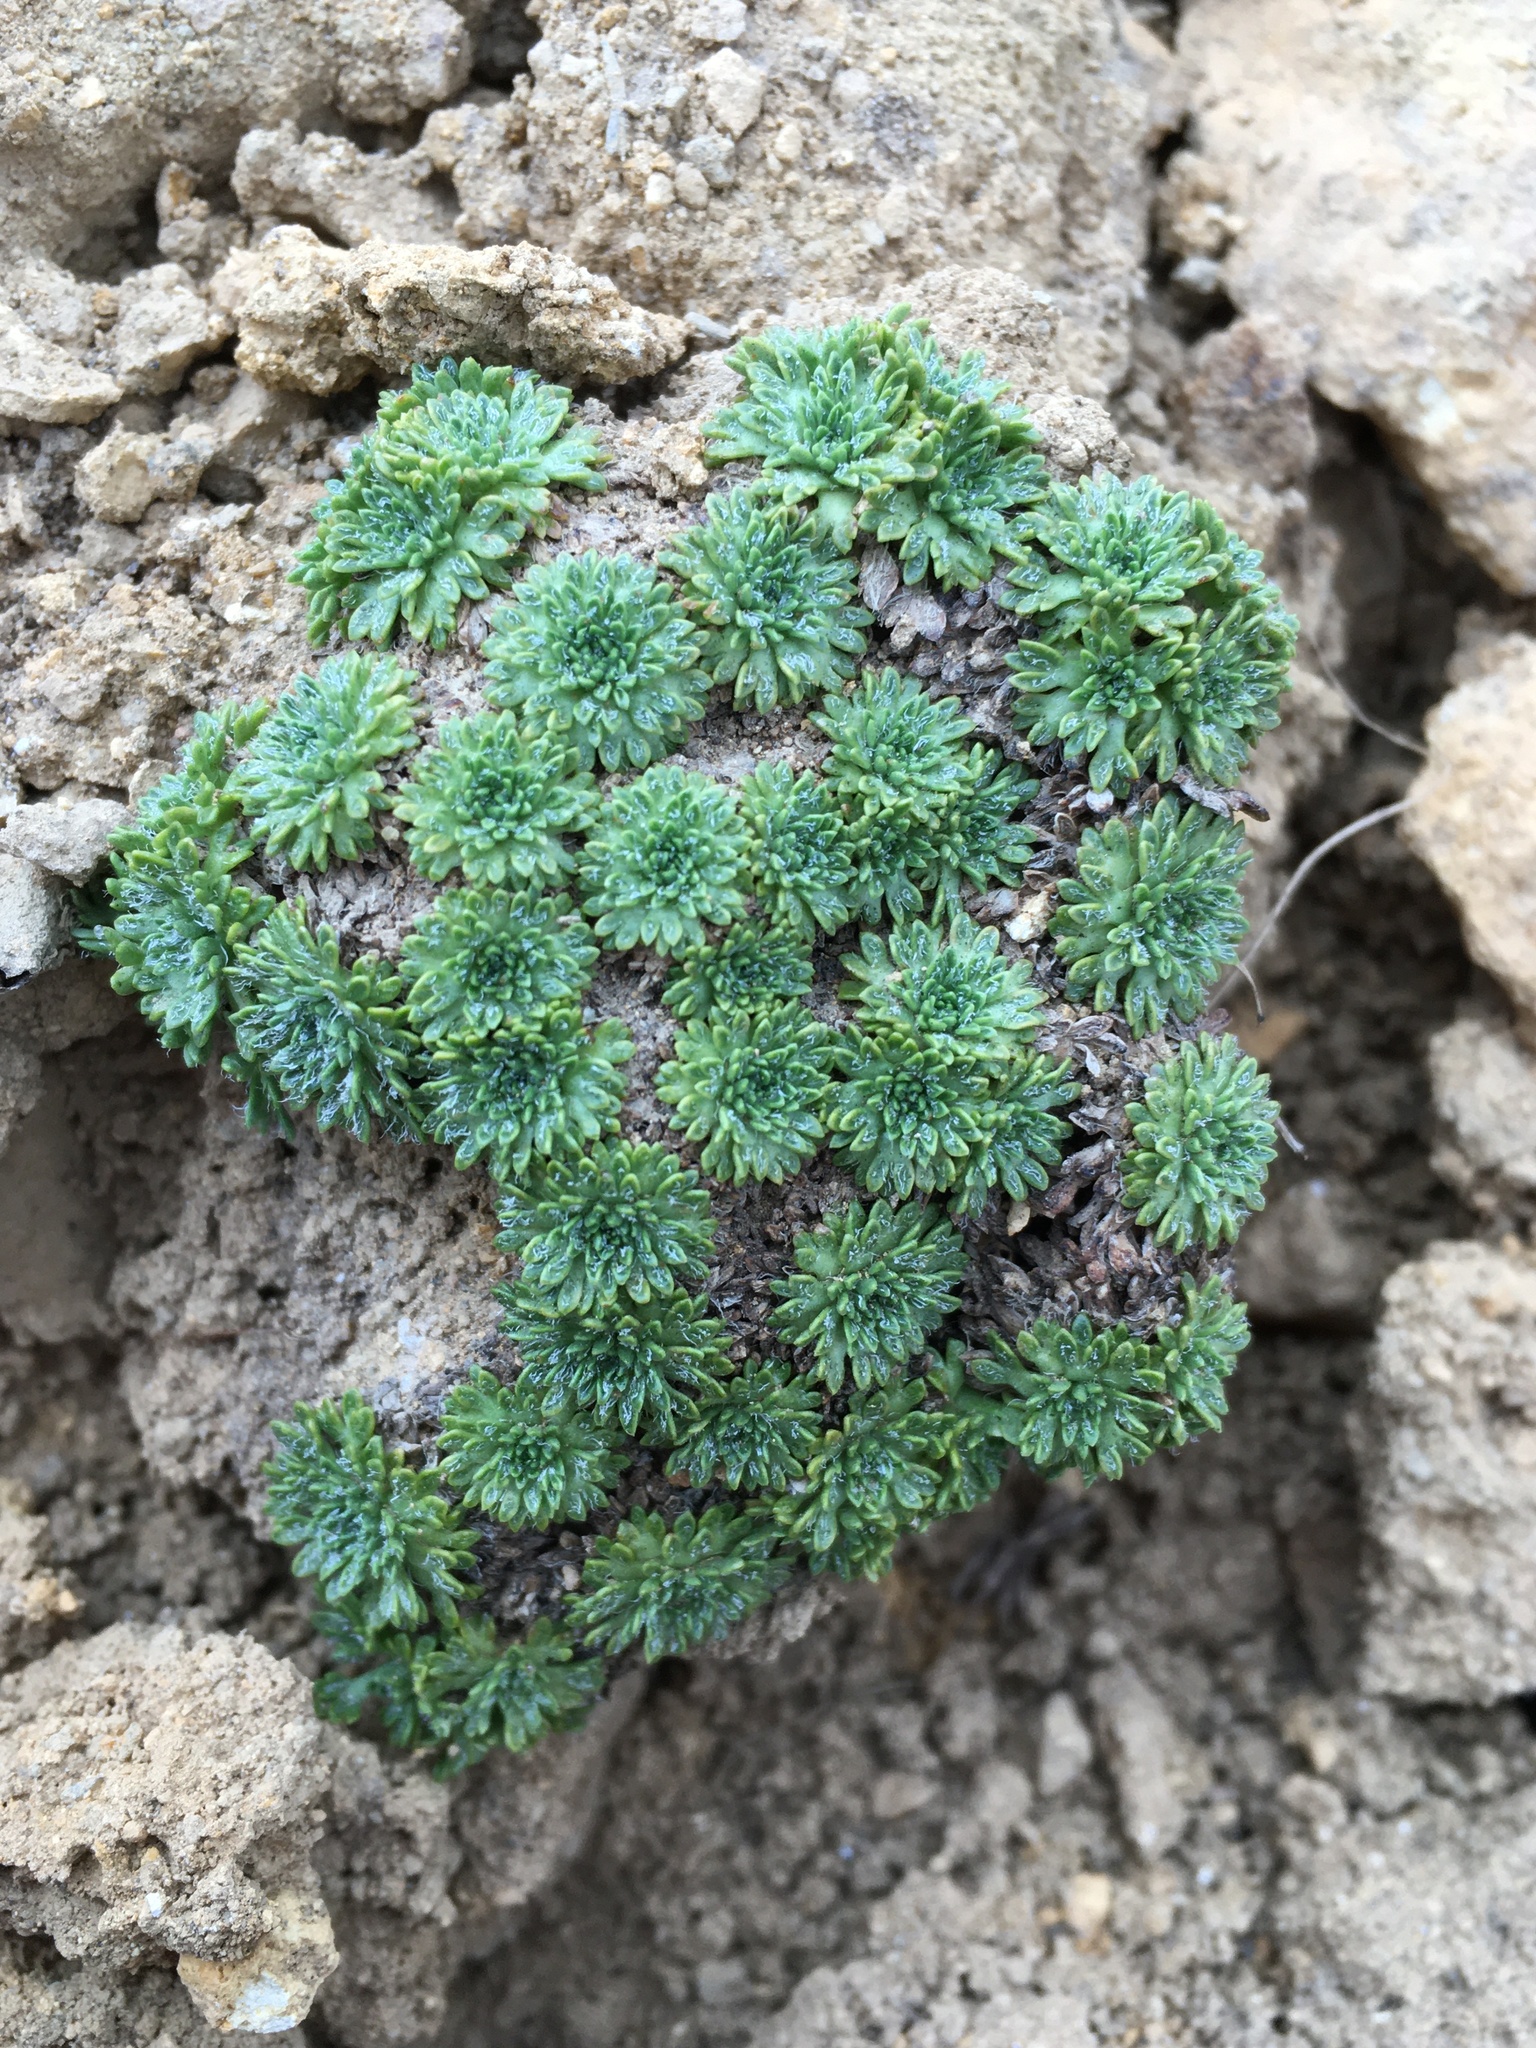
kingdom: Plantae
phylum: Tracheophyta
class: Magnoliopsida
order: Apiales
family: Apiaceae
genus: Azorella
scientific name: Azorella madreporica
